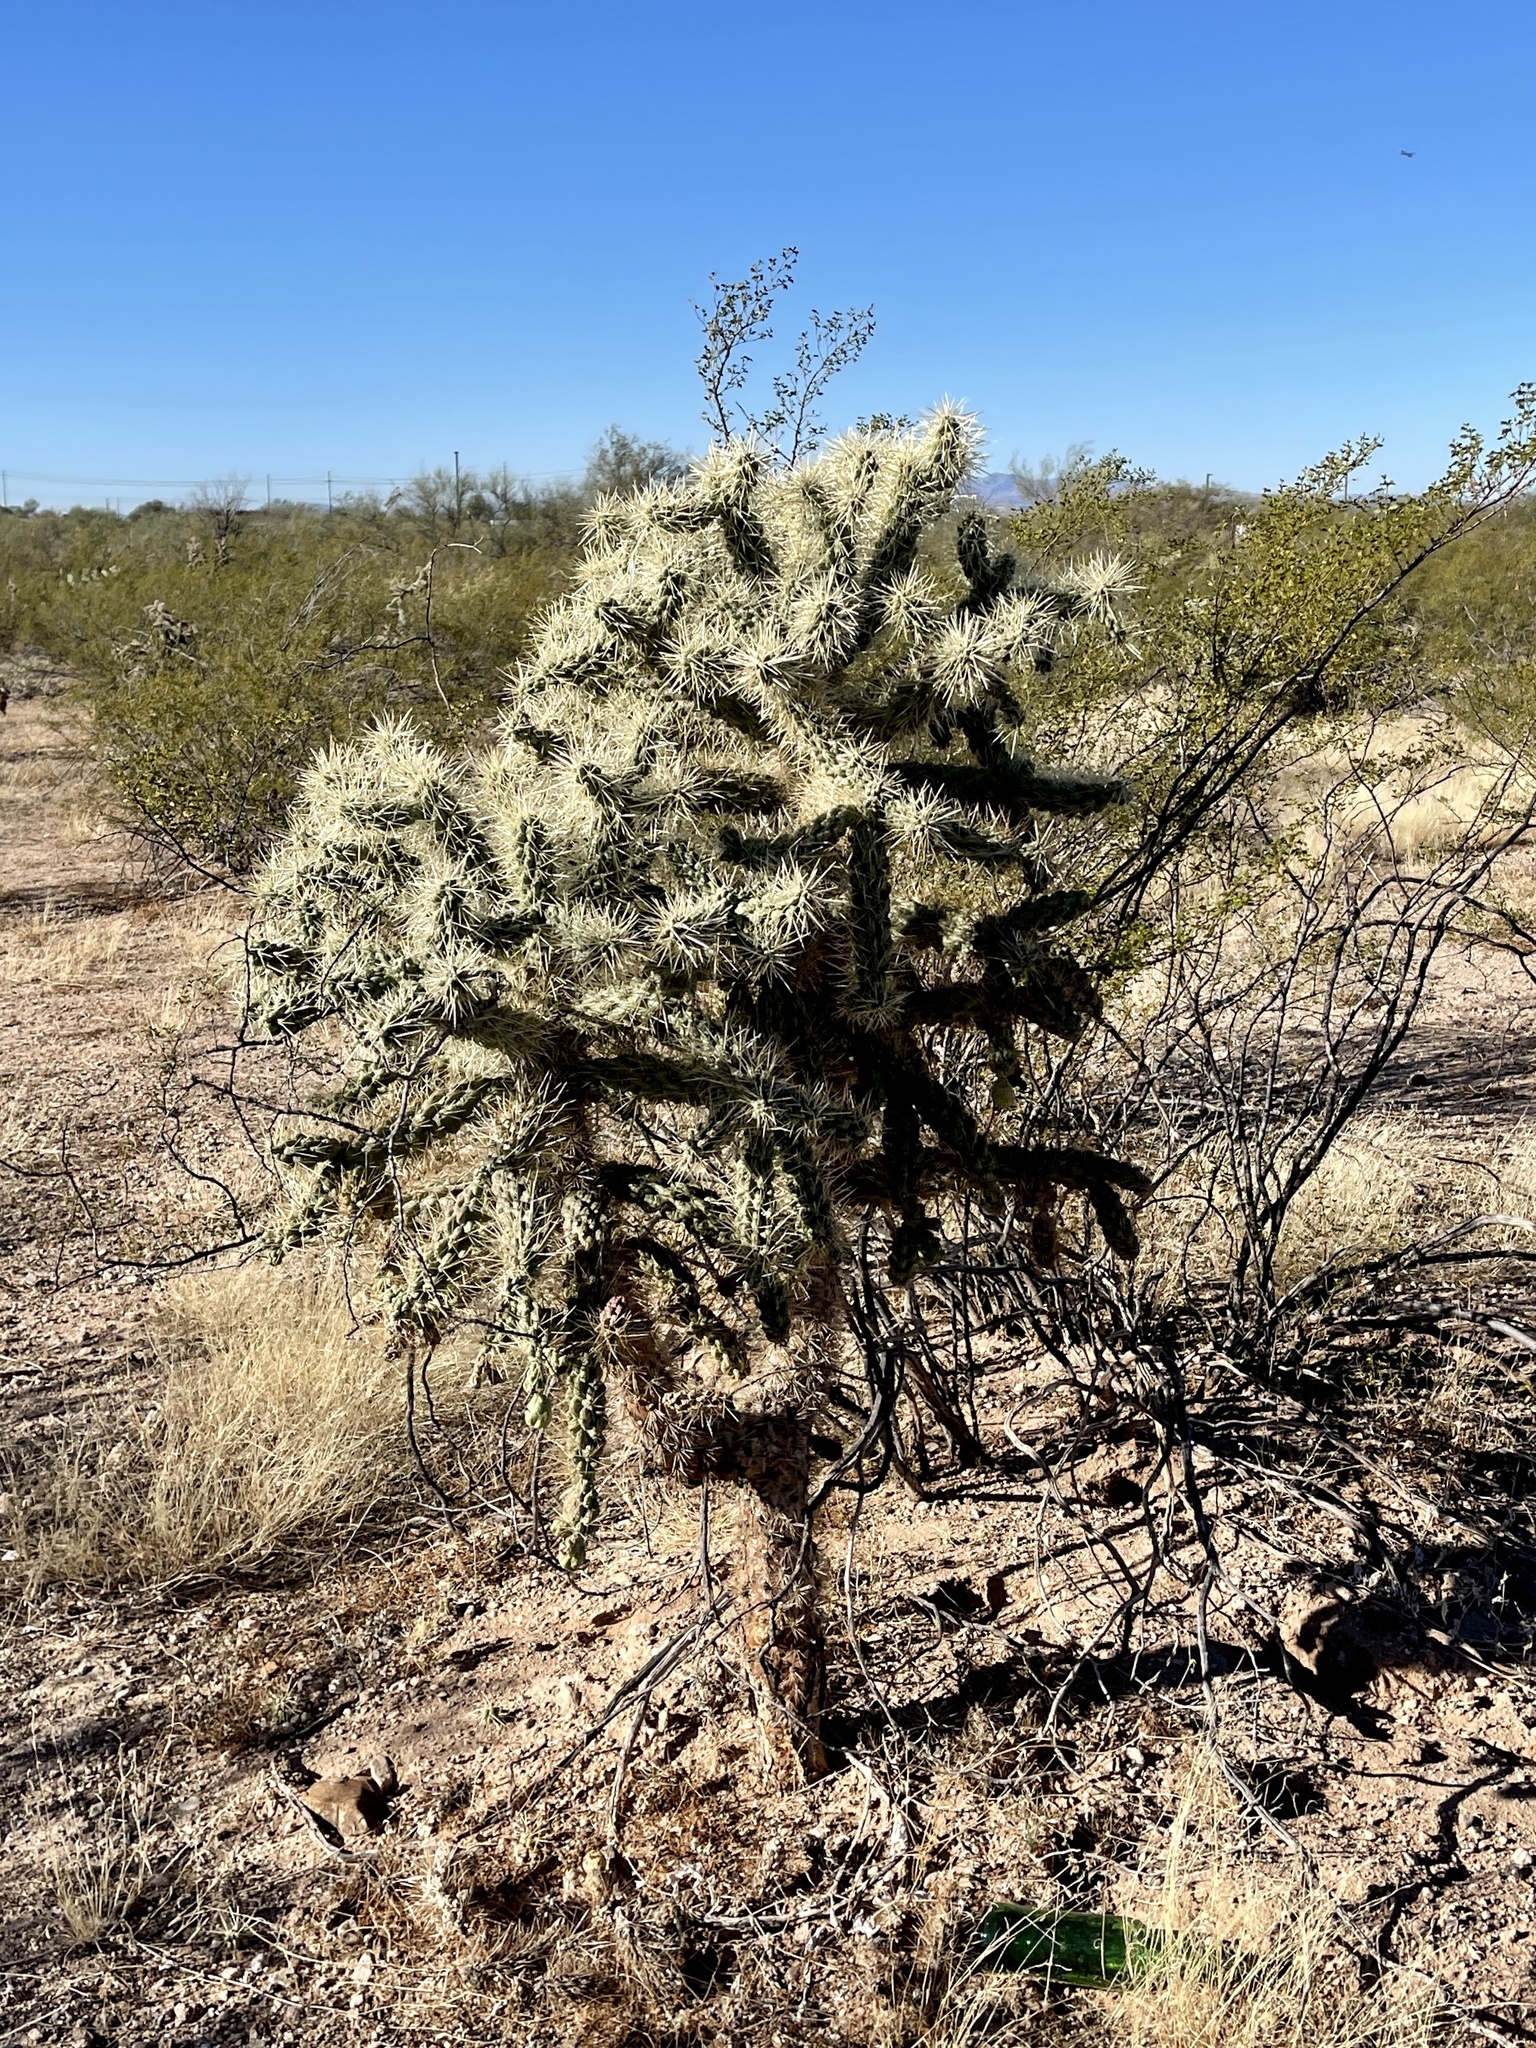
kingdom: Plantae
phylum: Tracheophyta
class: Magnoliopsida
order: Caryophyllales
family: Cactaceae
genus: Cylindropuntia
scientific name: Cylindropuntia fulgida
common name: Jumping cholla
